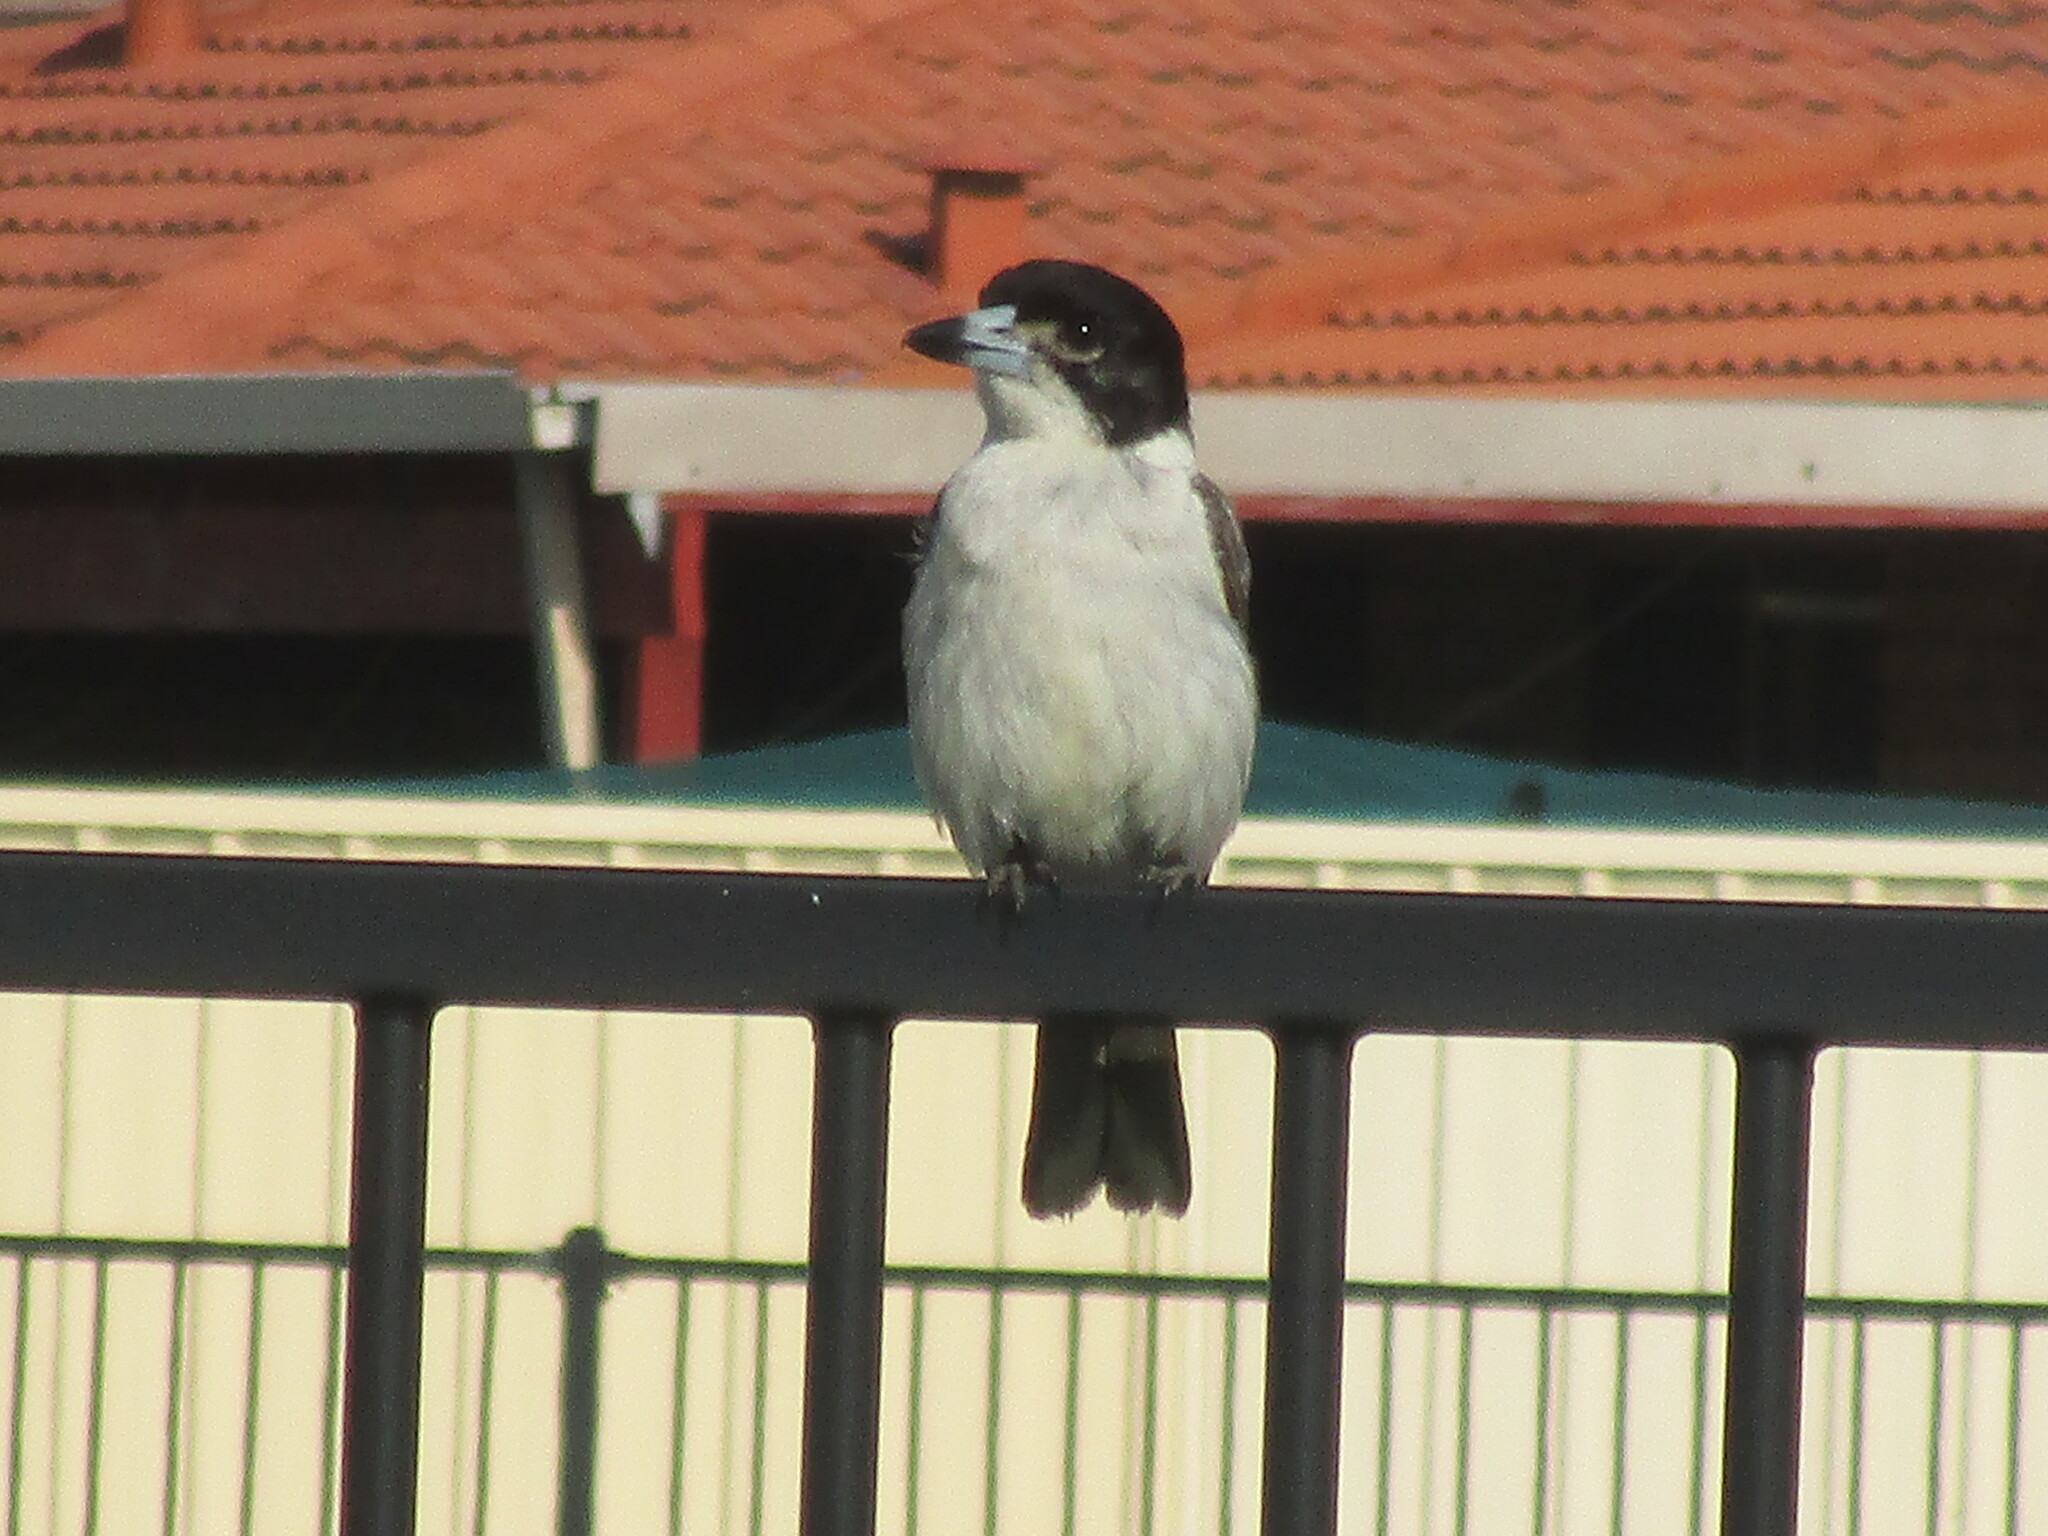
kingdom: Animalia
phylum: Chordata
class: Aves
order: Passeriformes
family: Cracticidae
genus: Cracticus
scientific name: Cracticus torquatus
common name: Grey butcherbird
